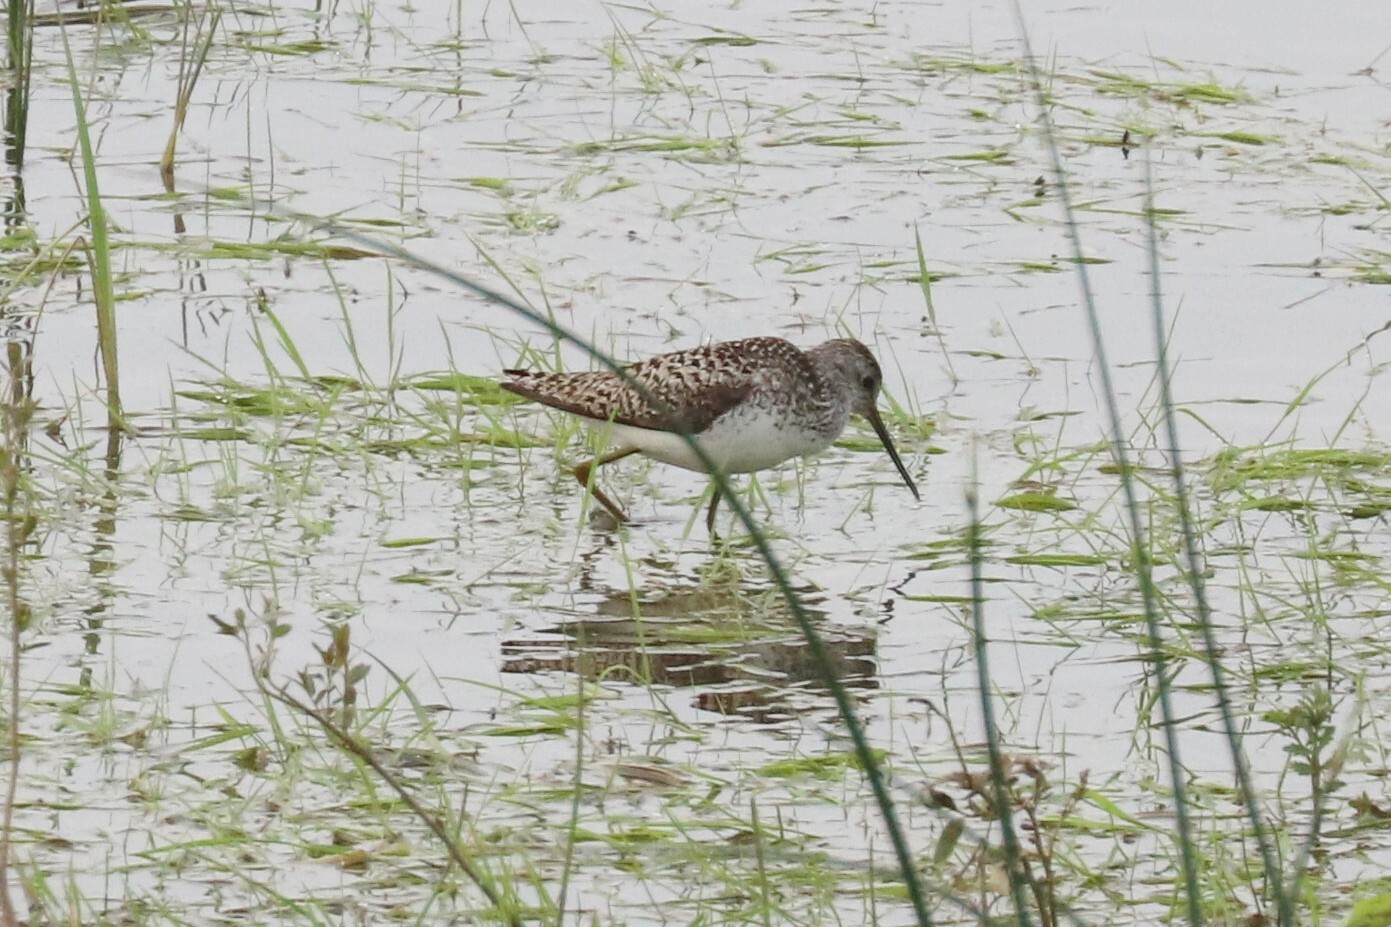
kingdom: Animalia
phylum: Chordata
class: Aves
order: Charadriiformes
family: Scolopacidae
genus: Tringa
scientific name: Tringa stagnatilis
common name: Marsh sandpiper
